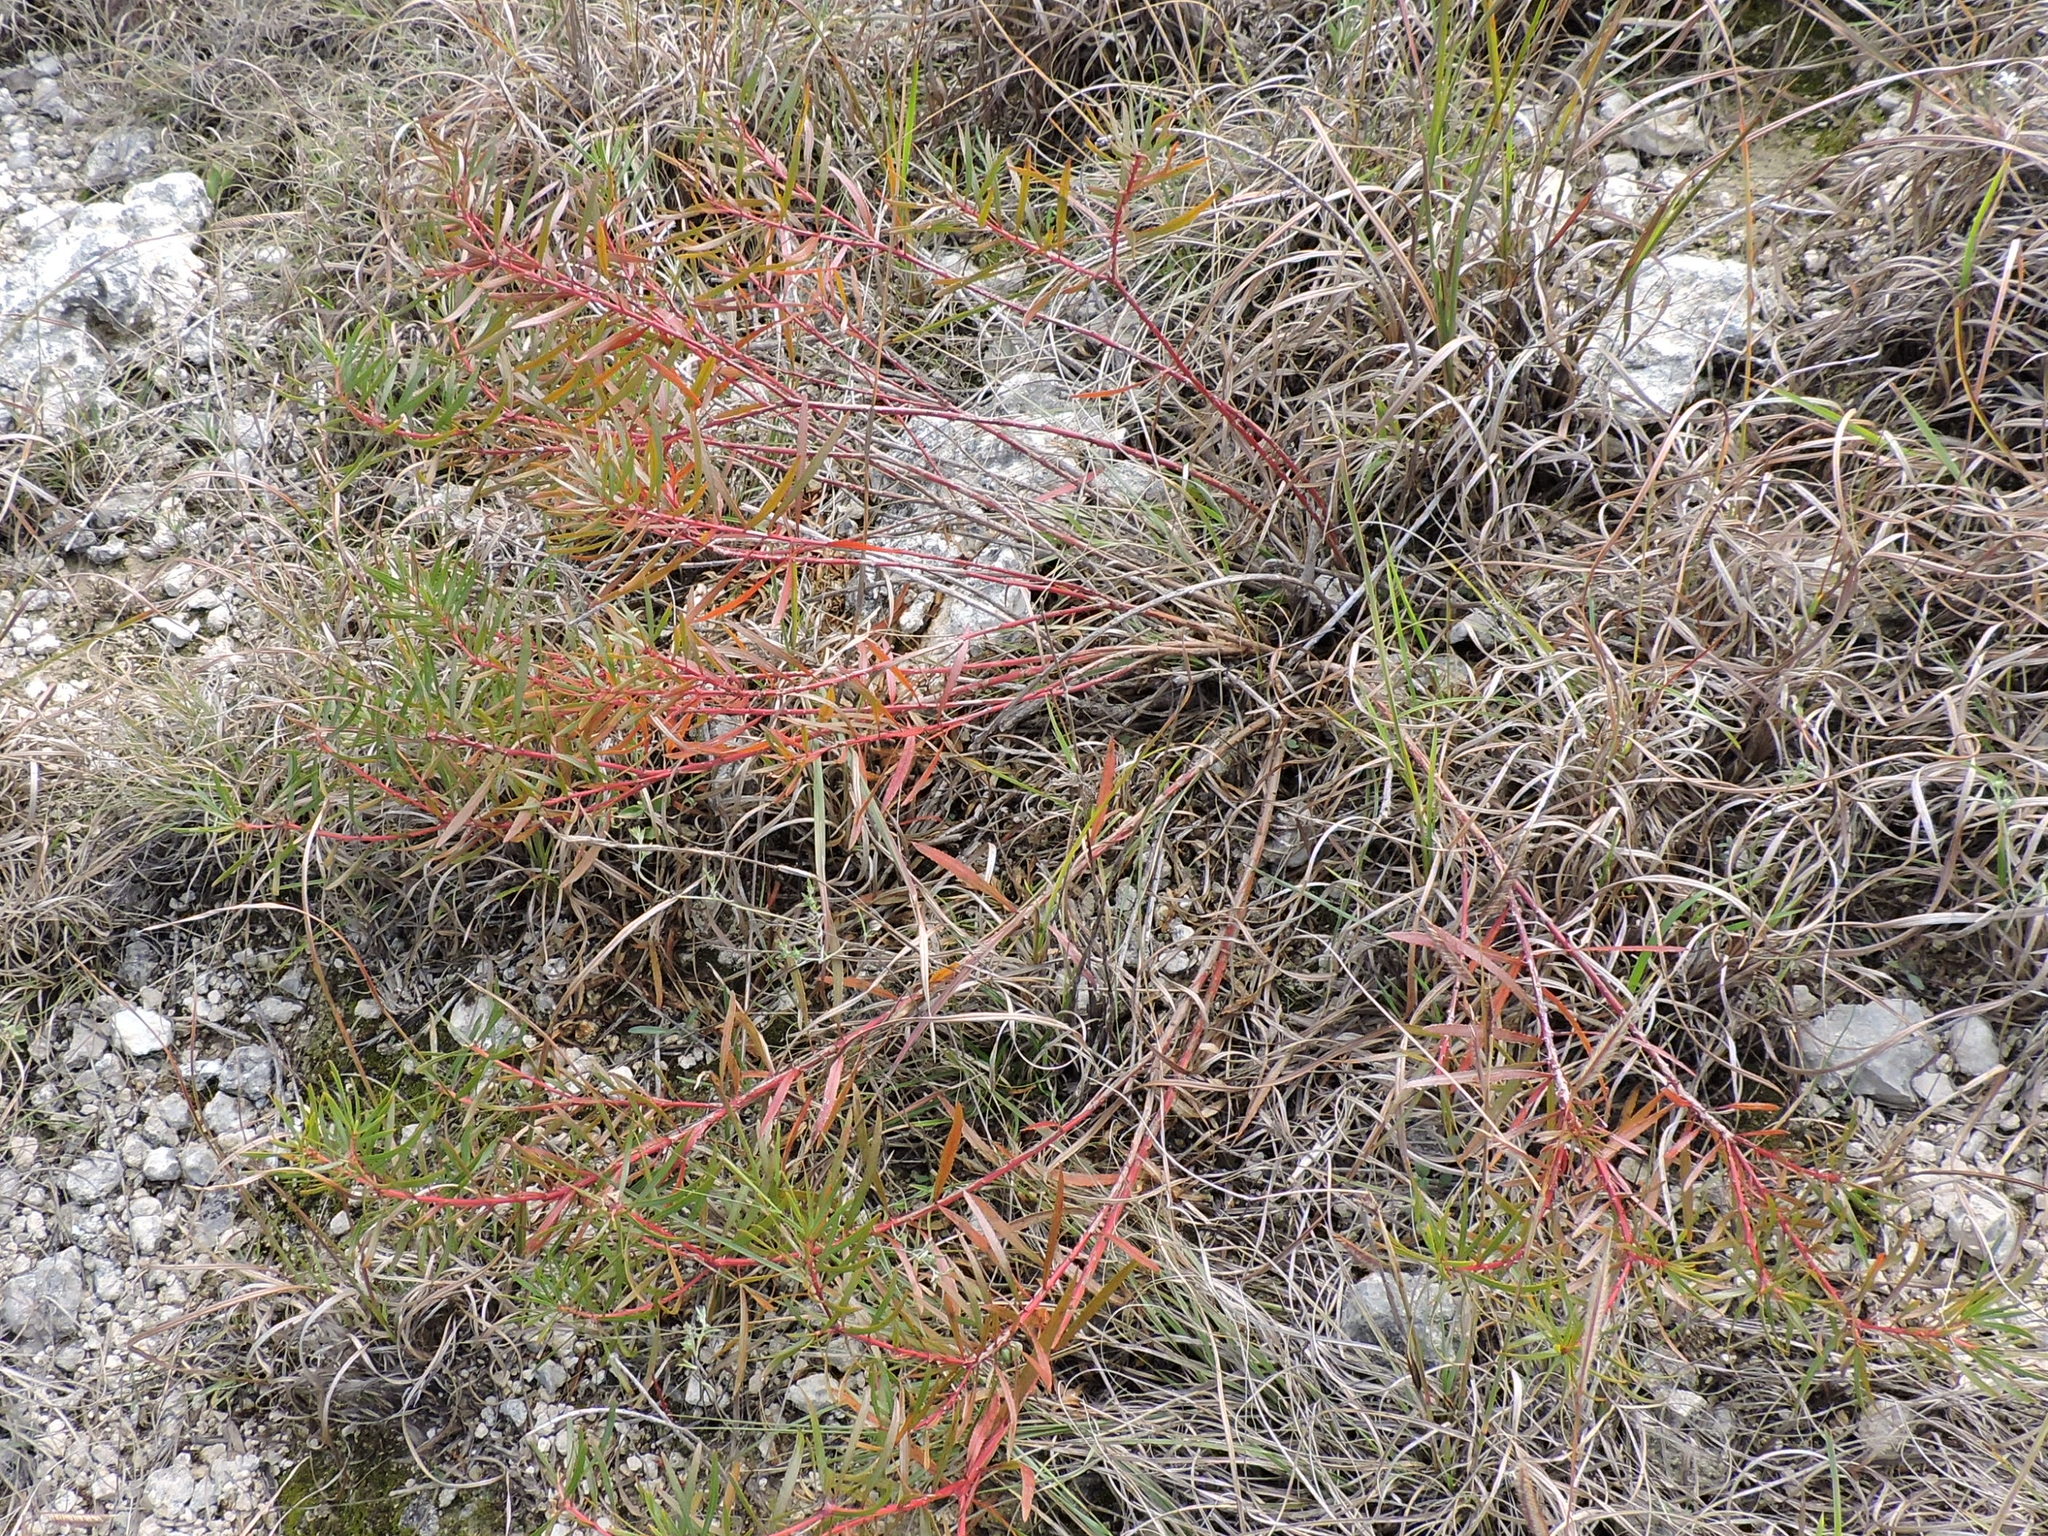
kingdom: Plantae
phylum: Tracheophyta
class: Magnoliopsida
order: Malpighiales
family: Euphorbiaceae
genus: Stillingia
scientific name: Stillingia texana
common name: Texas stillingia
